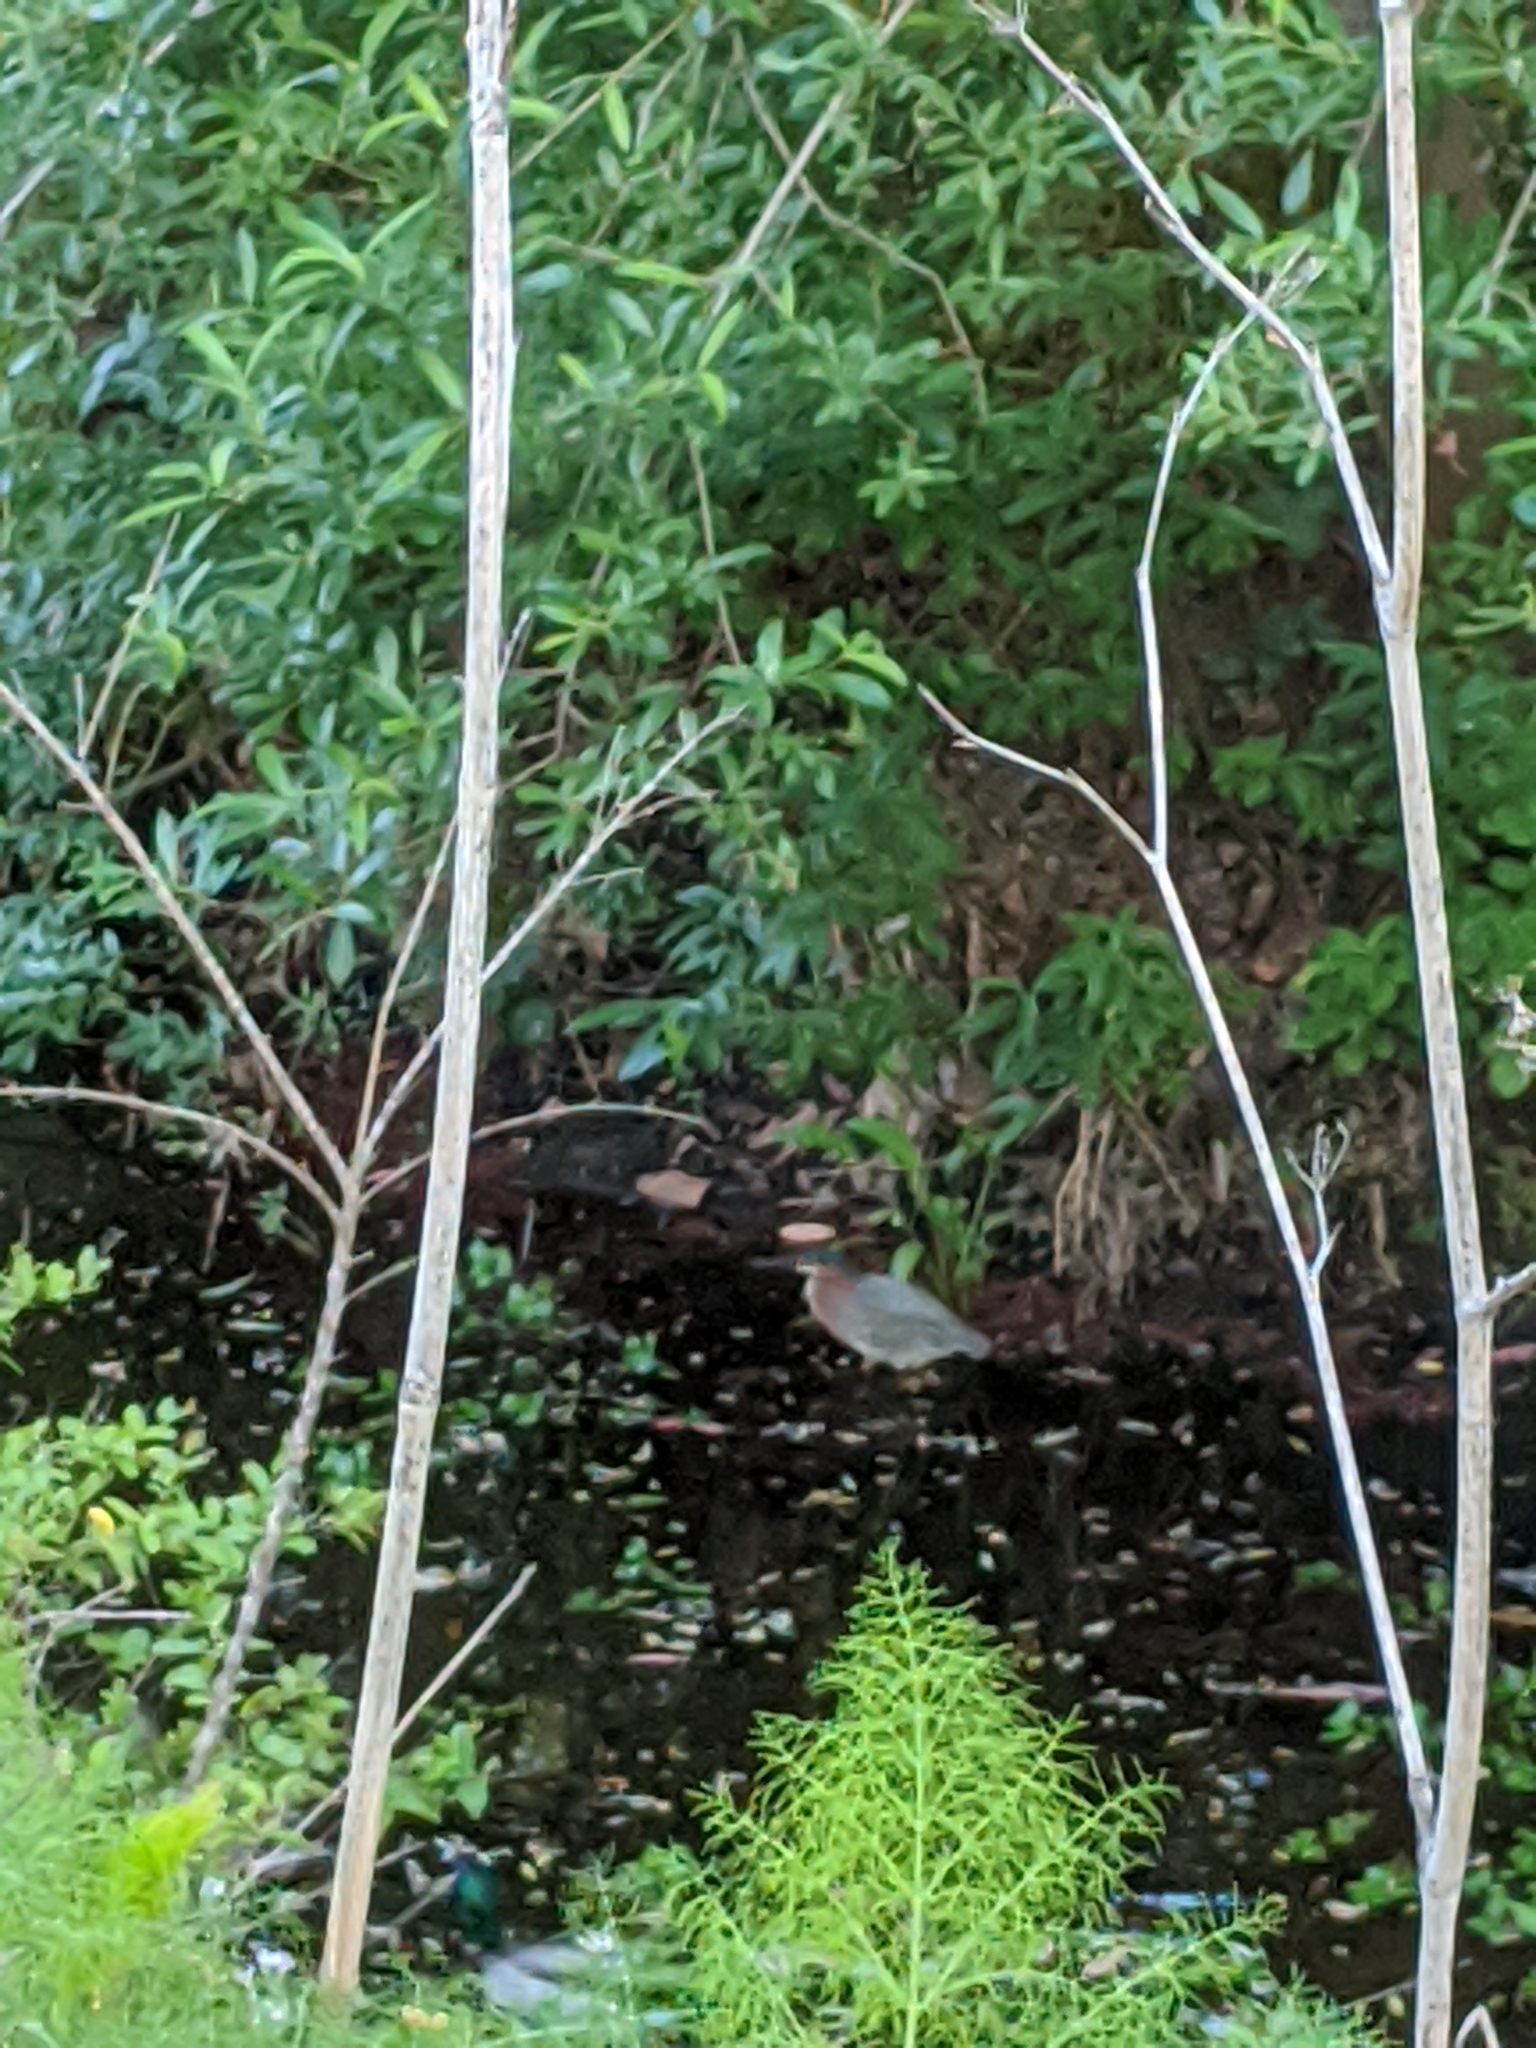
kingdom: Animalia
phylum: Chordata
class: Aves
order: Pelecaniformes
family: Ardeidae
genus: Butorides
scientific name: Butorides virescens
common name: Green heron
